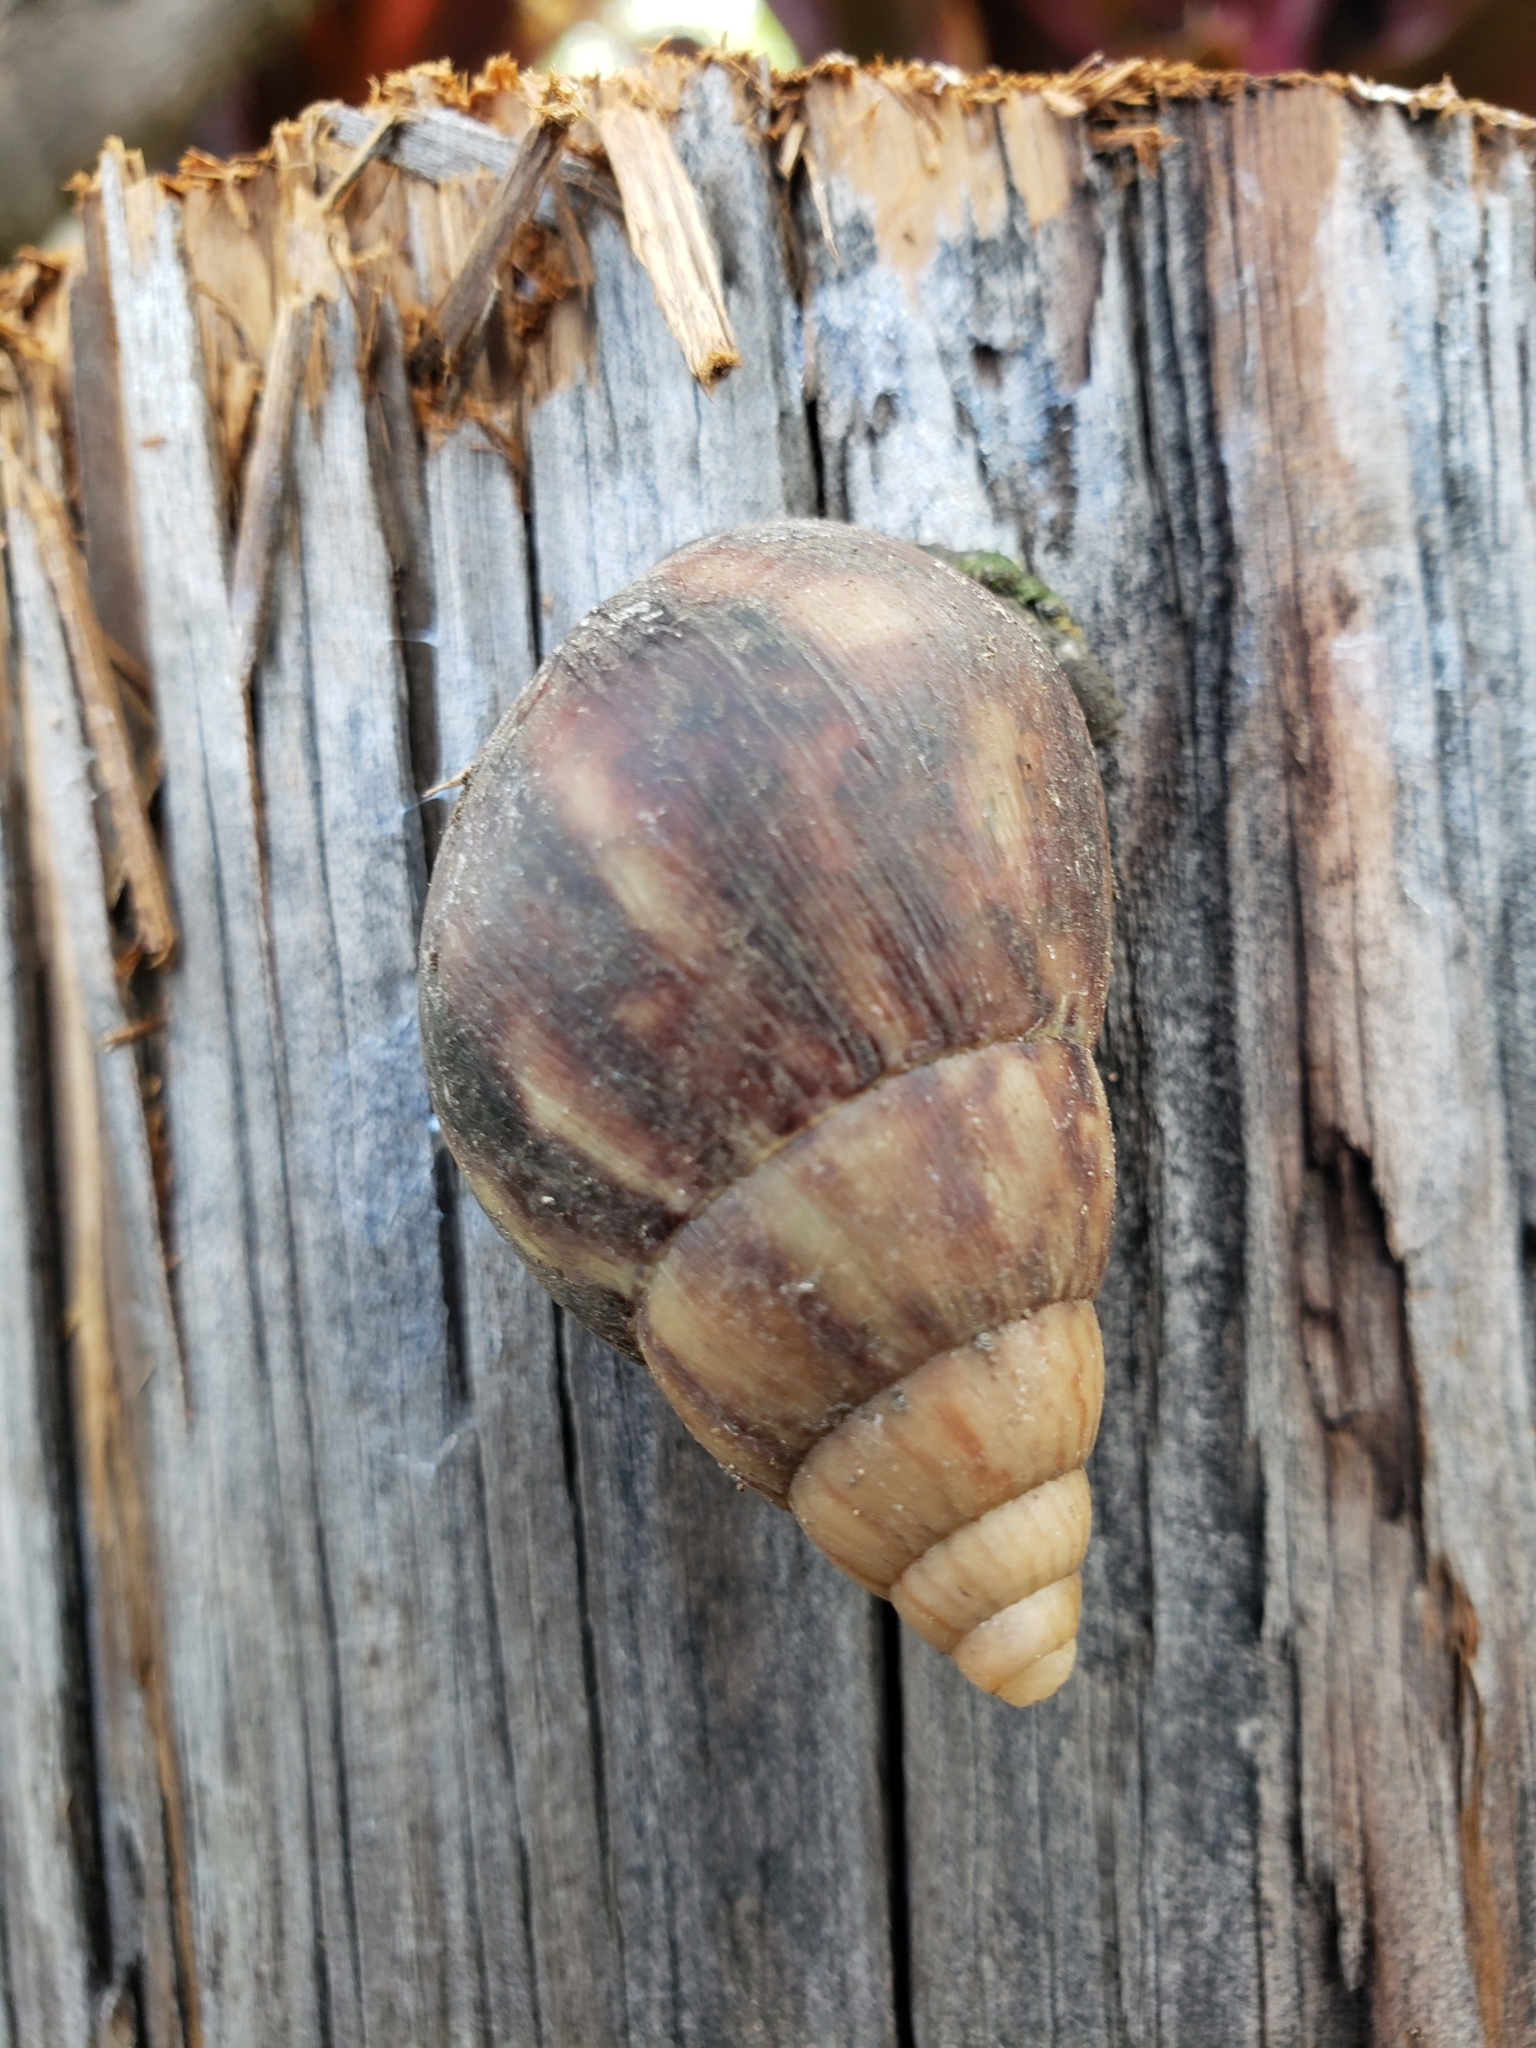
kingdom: Animalia
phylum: Mollusca
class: Gastropoda
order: Stylommatophora
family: Achatinidae
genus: Lissachatina
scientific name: Lissachatina fulica
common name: Giant african snail
